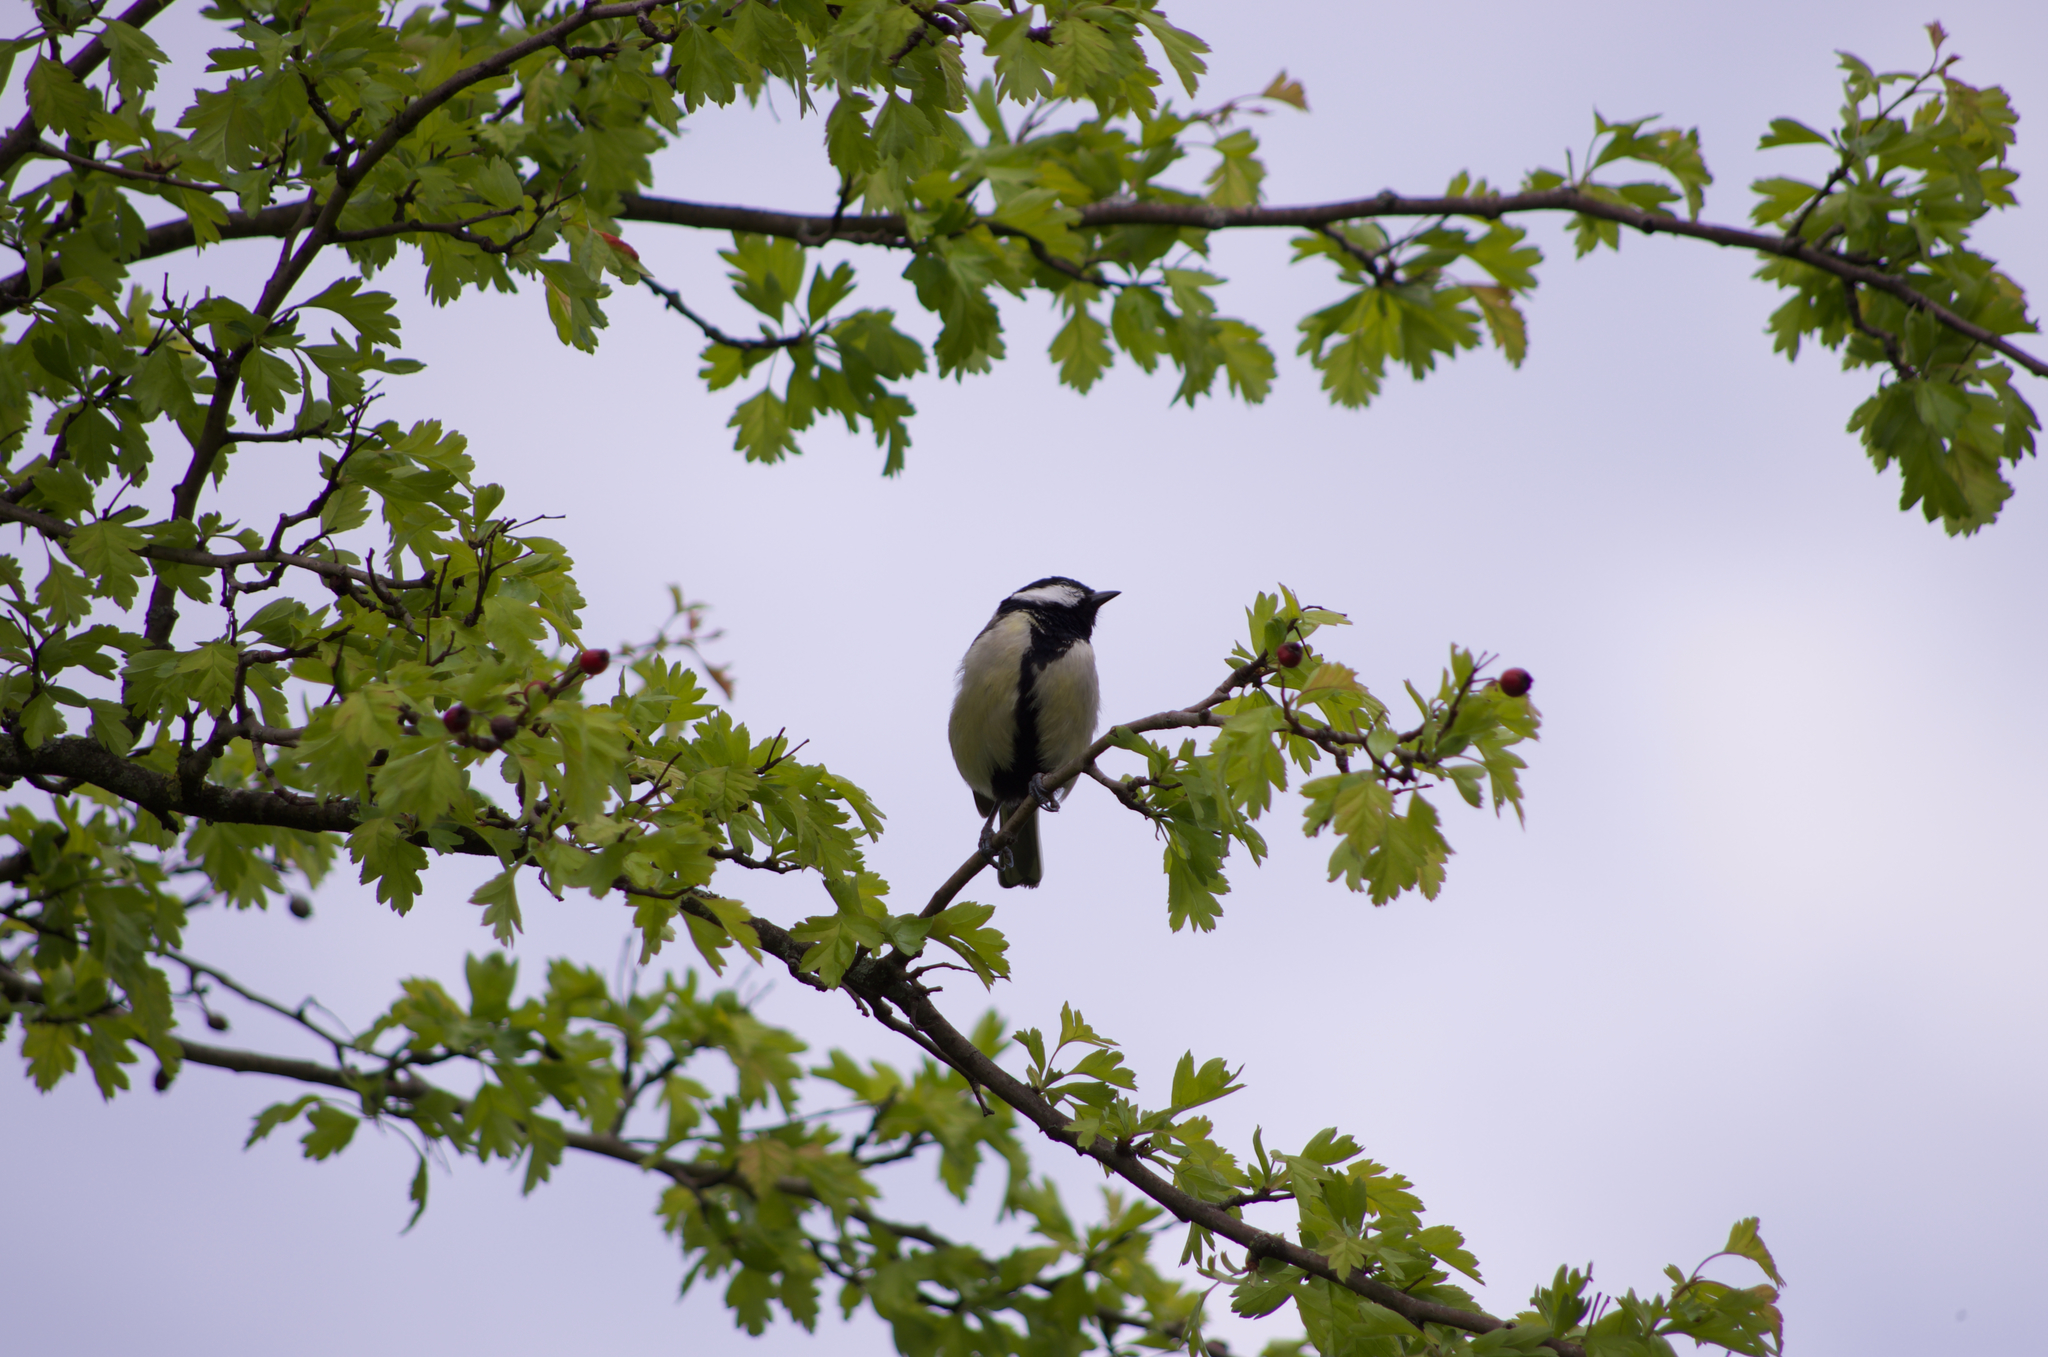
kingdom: Animalia
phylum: Chordata
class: Aves
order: Passeriformes
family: Paridae
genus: Parus
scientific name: Parus major
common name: Great tit
